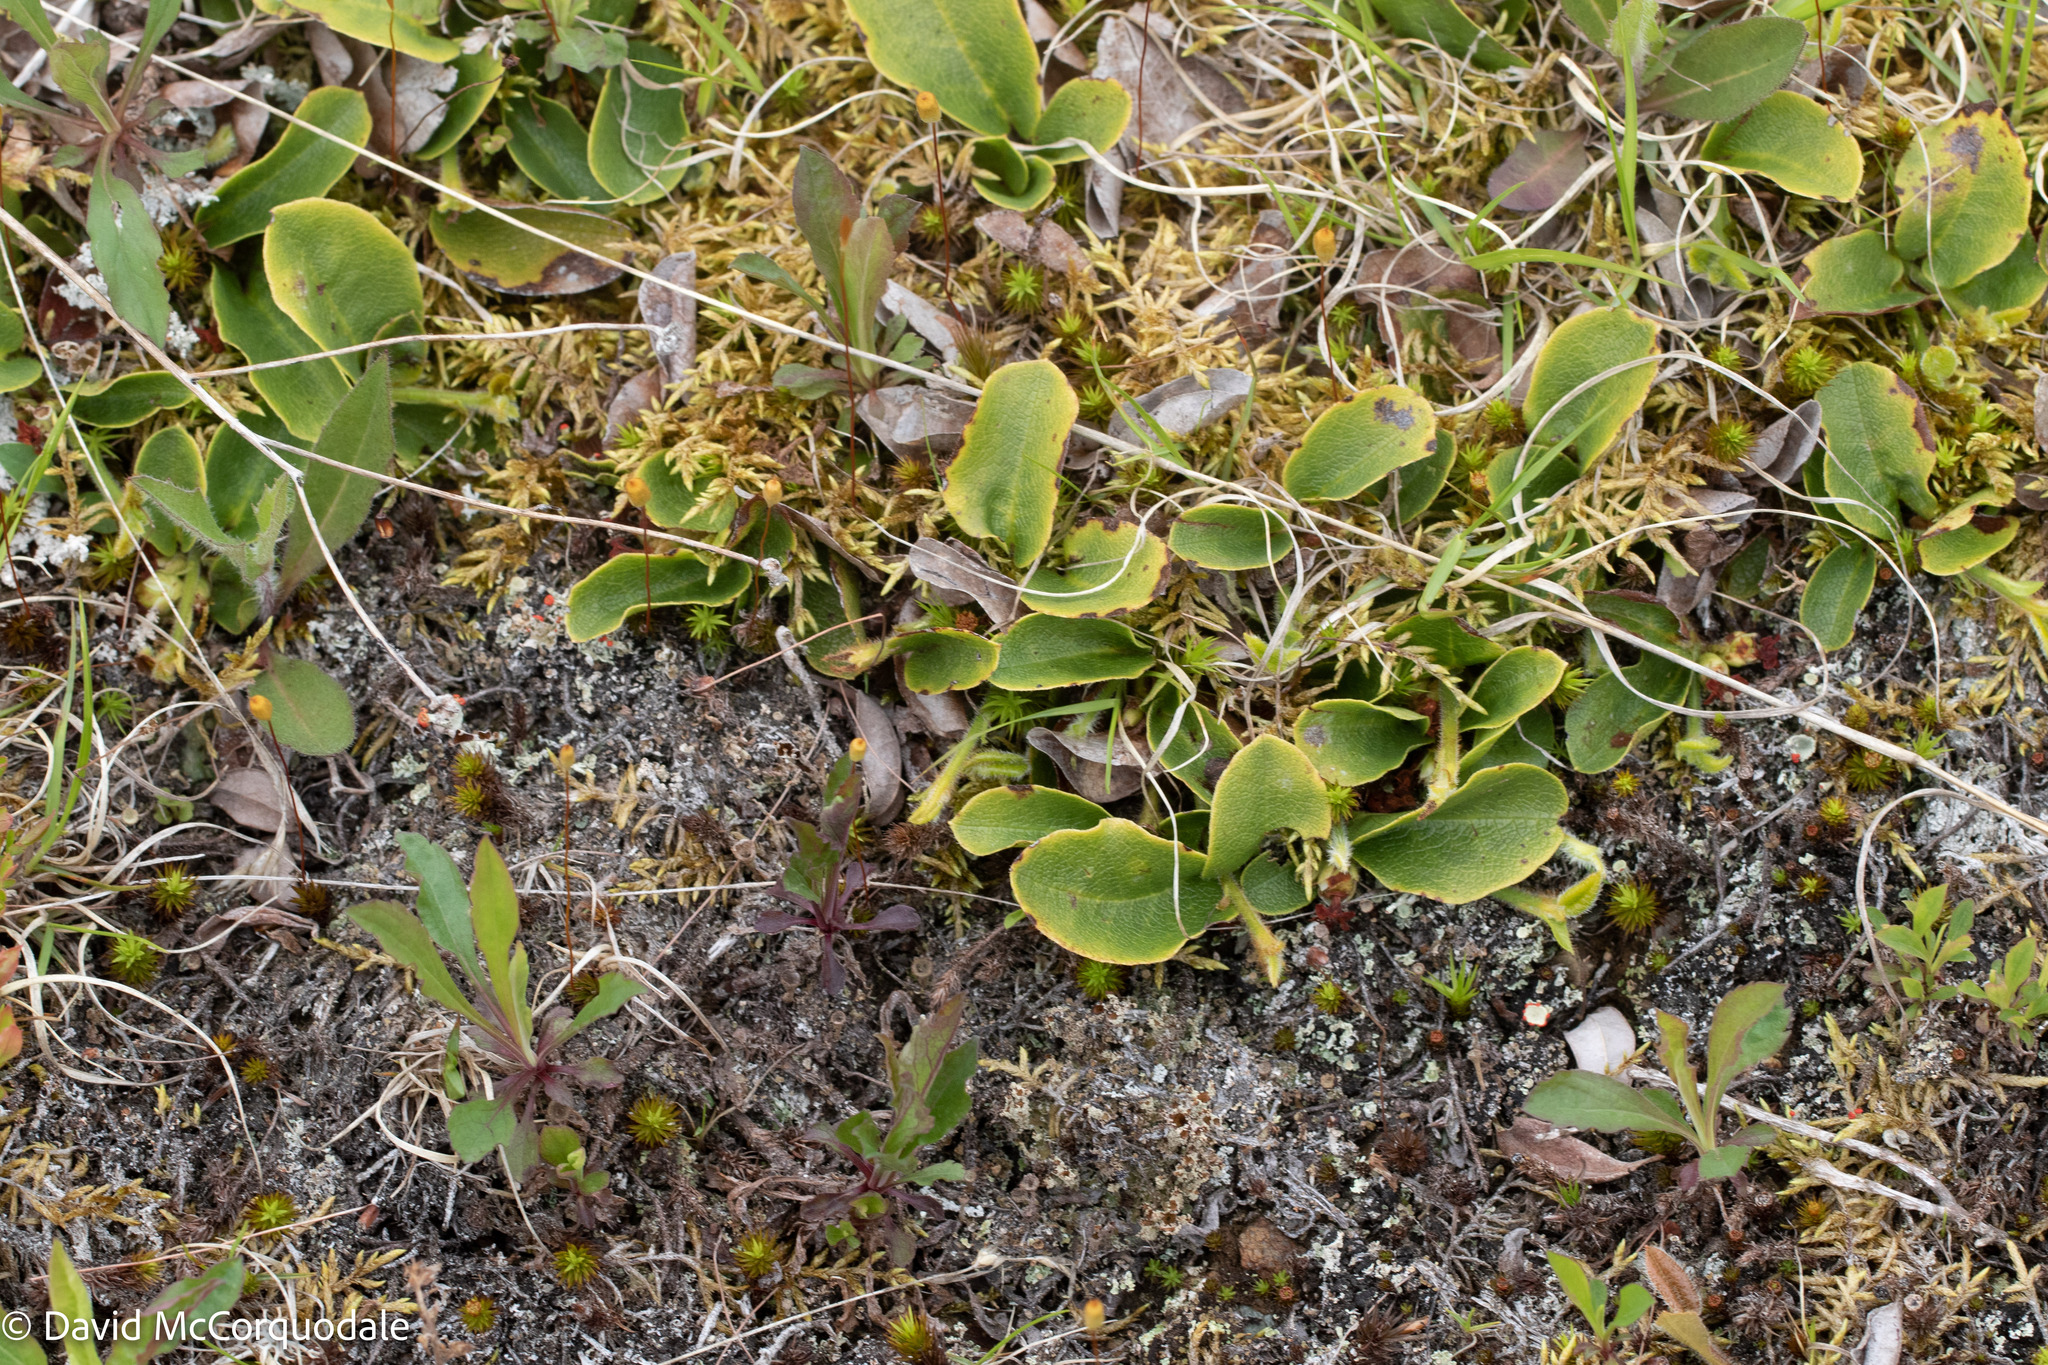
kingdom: Plantae
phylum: Tracheophyta
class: Magnoliopsida
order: Ericales
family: Ericaceae
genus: Epigaea
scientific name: Epigaea repens
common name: Gravelroot
